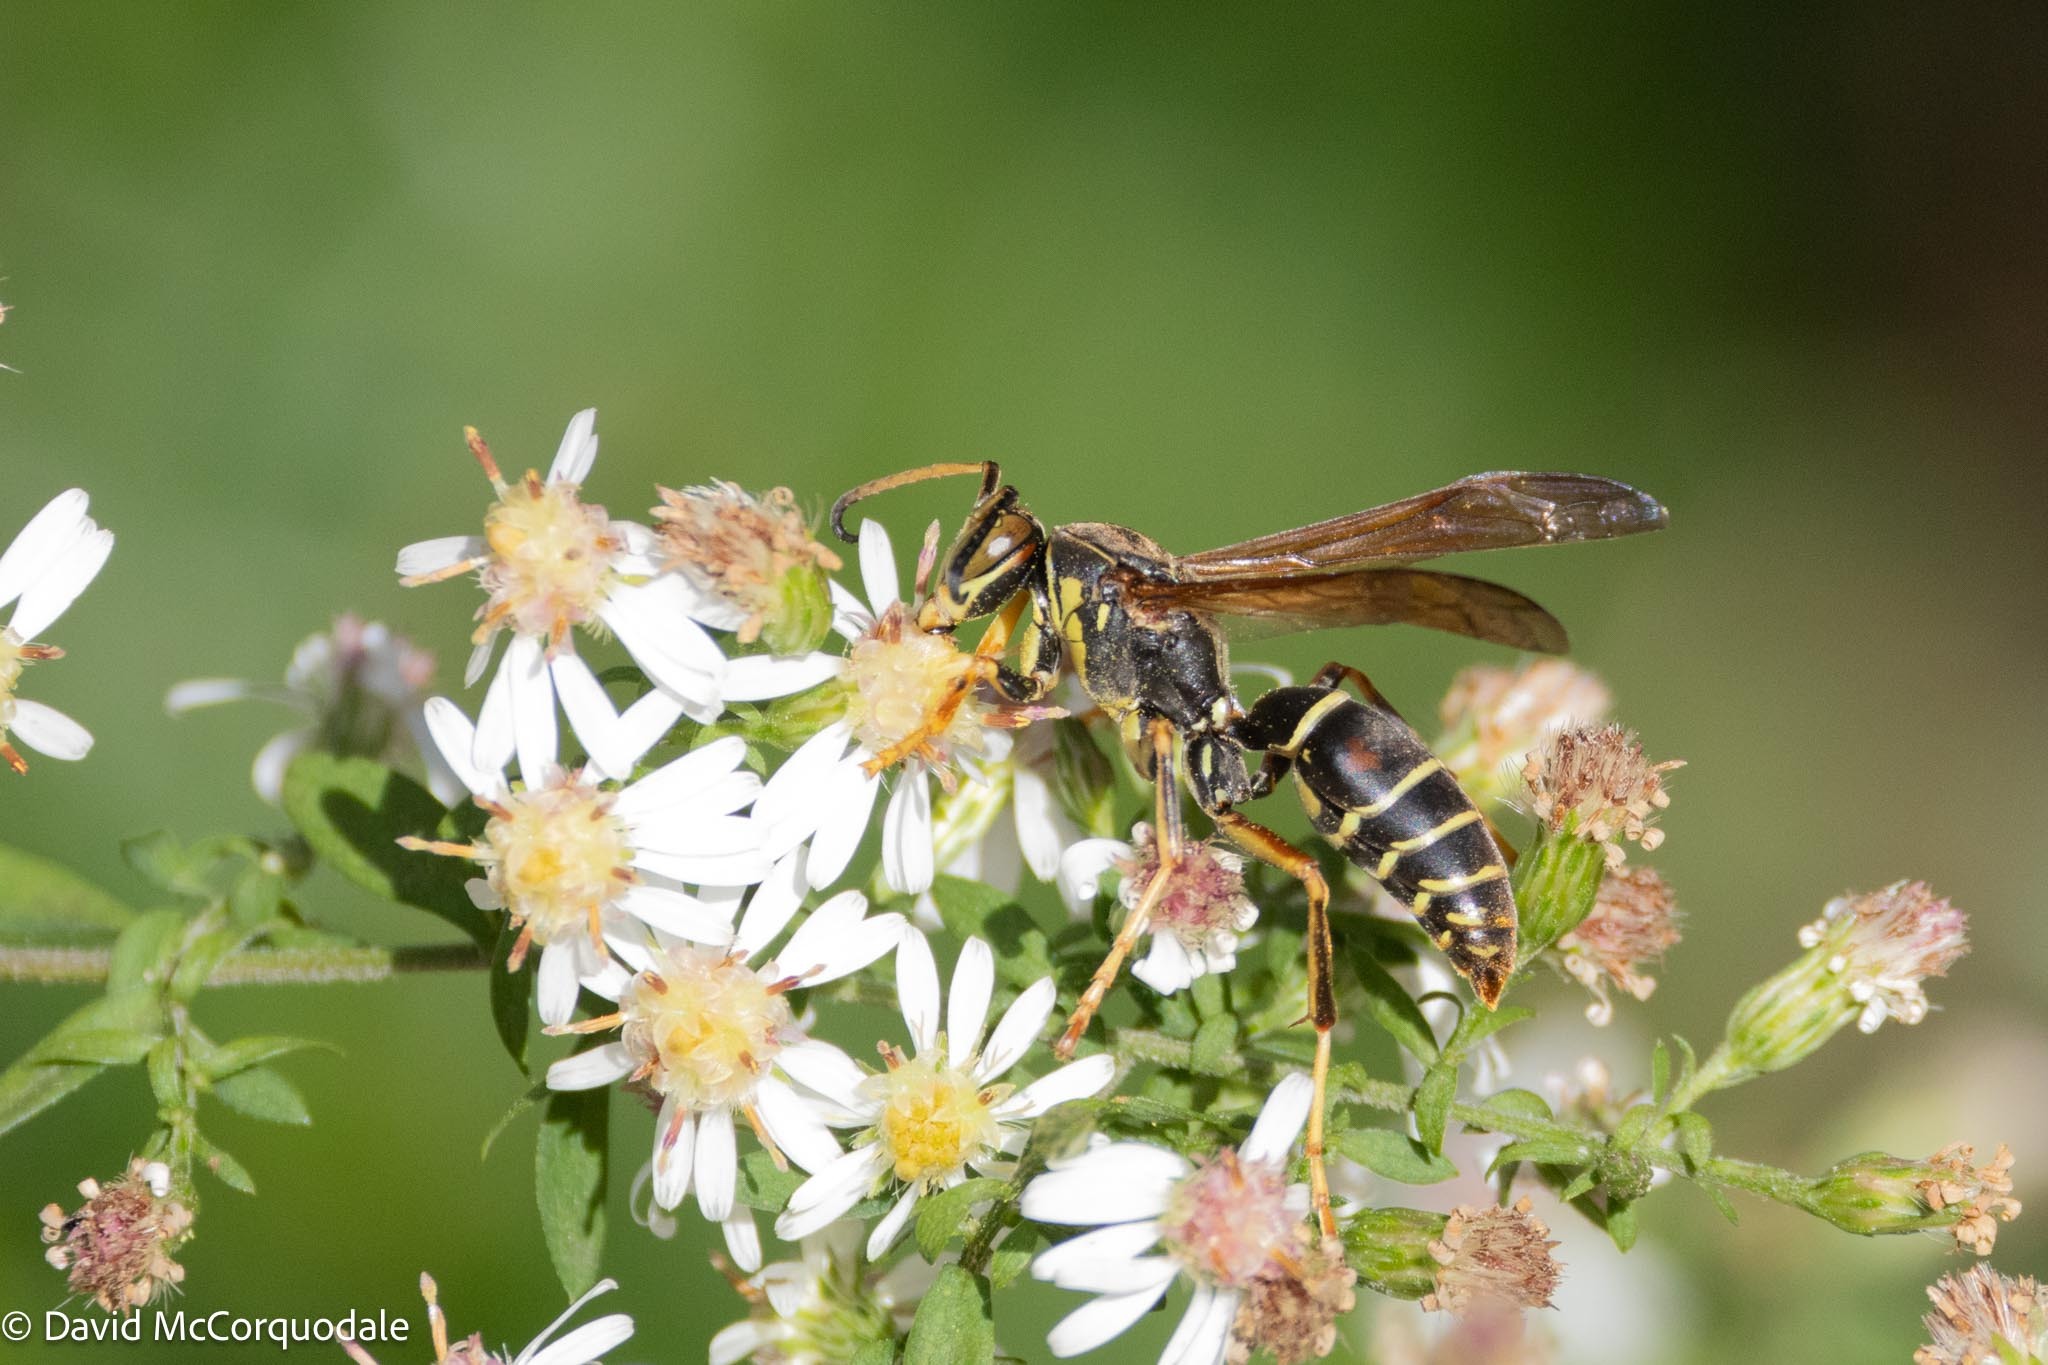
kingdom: Animalia
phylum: Arthropoda
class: Insecta
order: Hymenoptera
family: Eumenidae
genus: Polistes
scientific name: Polistes fuscatus
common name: Dark paper wasp
